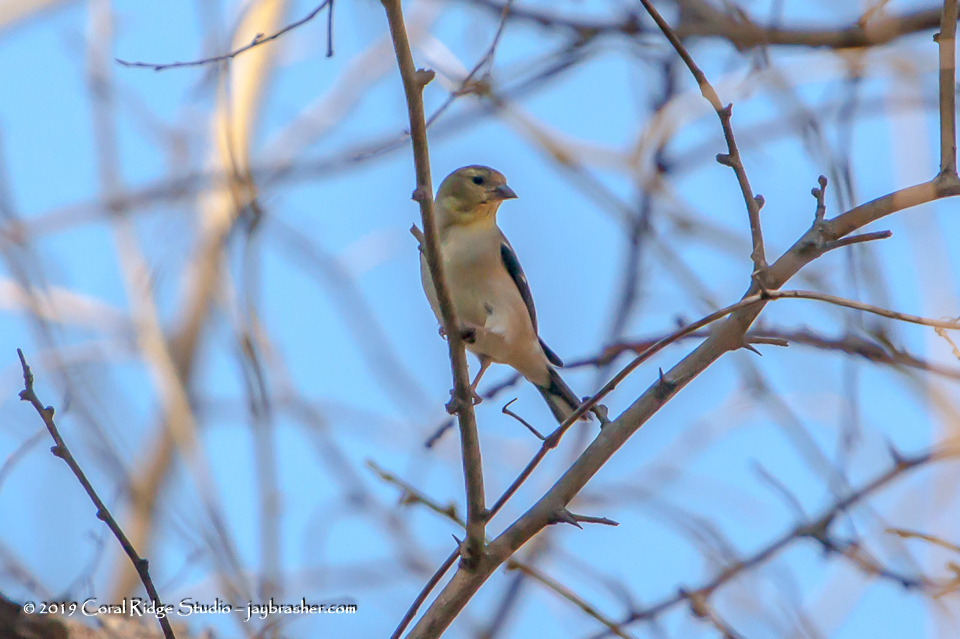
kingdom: Animalia
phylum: Chordata
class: Aves
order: Passeriformes
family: Fringillidae
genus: Spinus
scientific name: Spinus tristis
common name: American goldfinch
